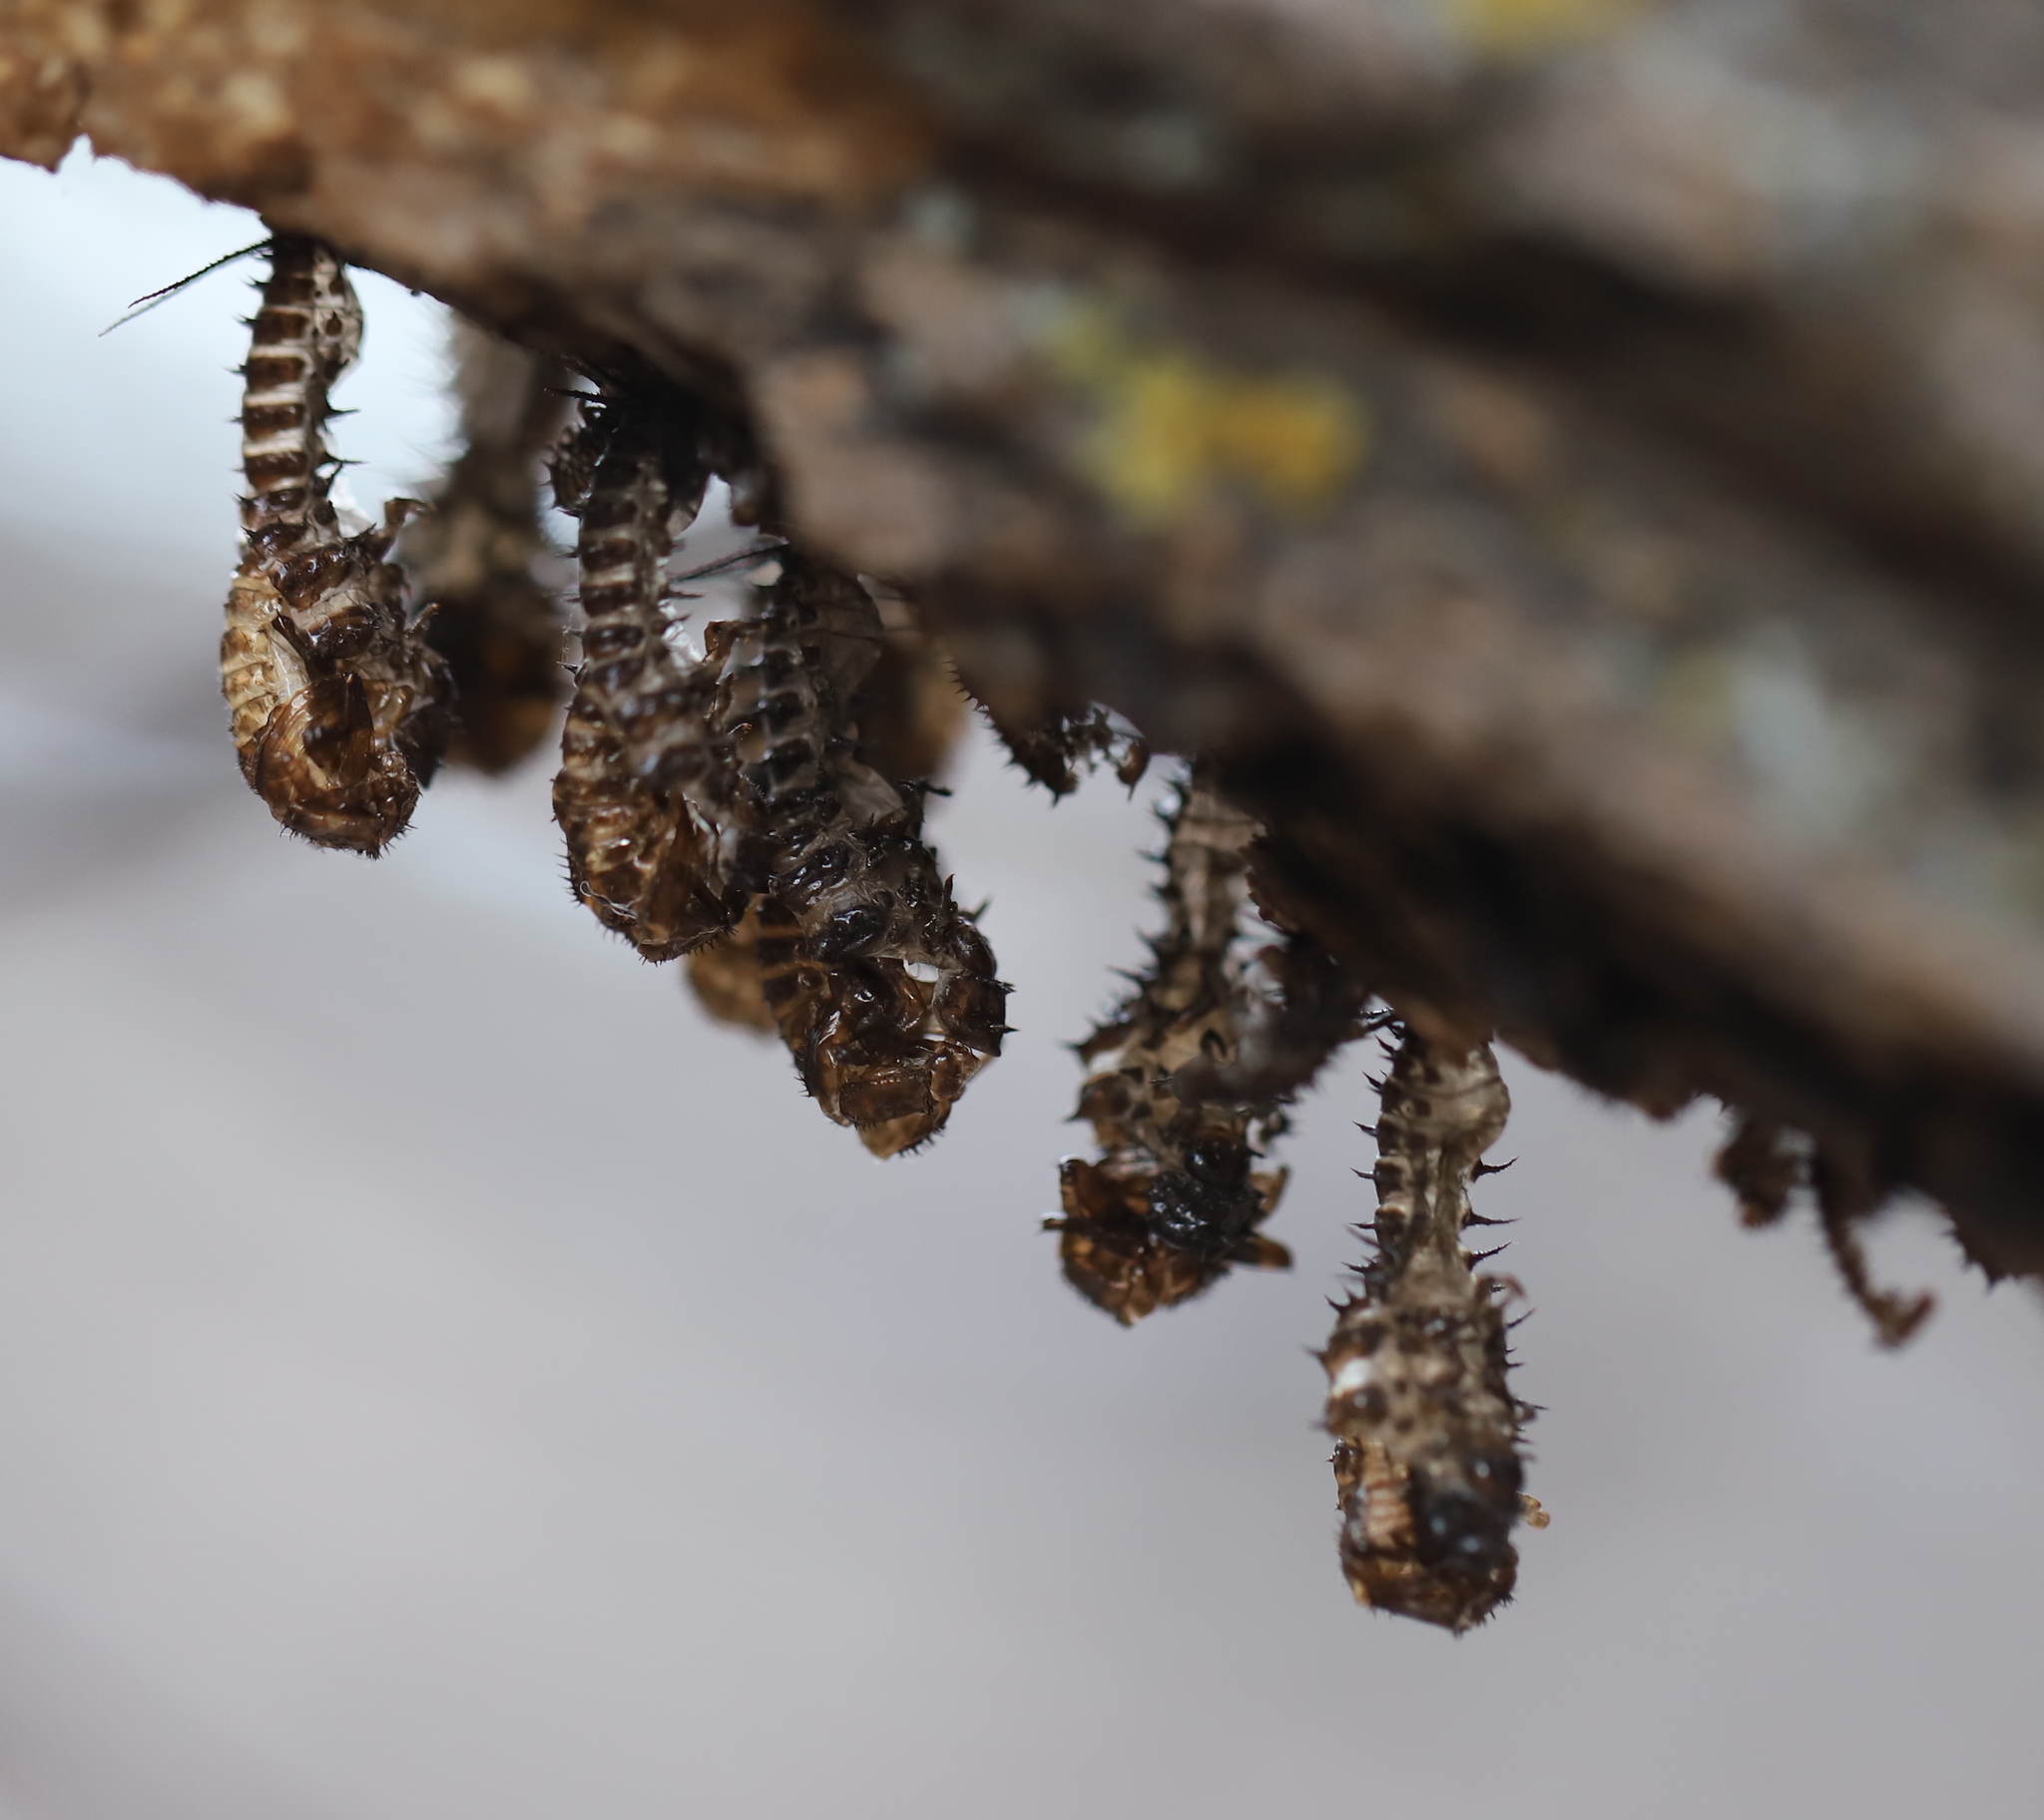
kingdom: Animalia
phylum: Arthropoda
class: Insecta
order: Coleoptera
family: Erotylidae
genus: Gibbifer
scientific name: Gibbifer californicus
